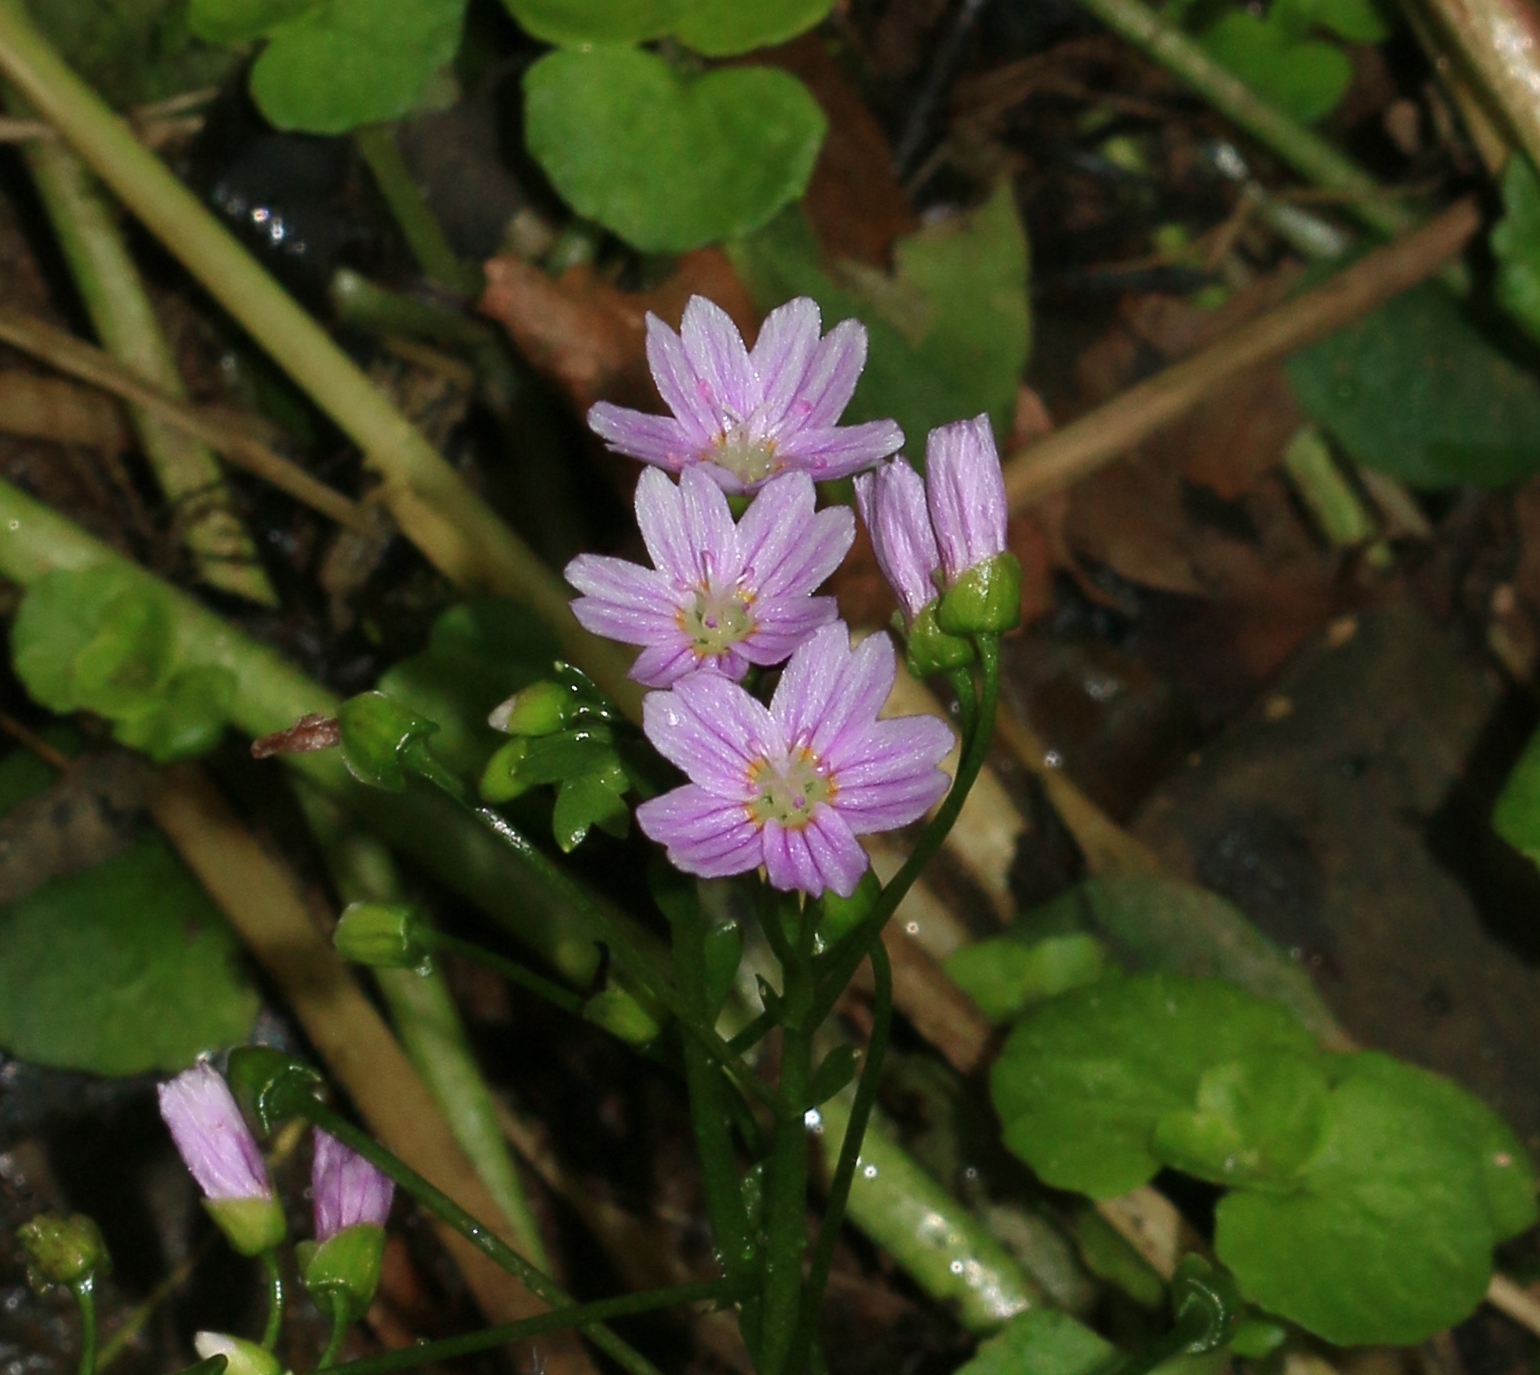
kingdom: Plantae
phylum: Tracheophyta
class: Magnoliopsida
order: Caryophyllales
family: Montiaceae
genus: Claytonia
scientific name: Claytonia sibirica
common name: Pink purslane
